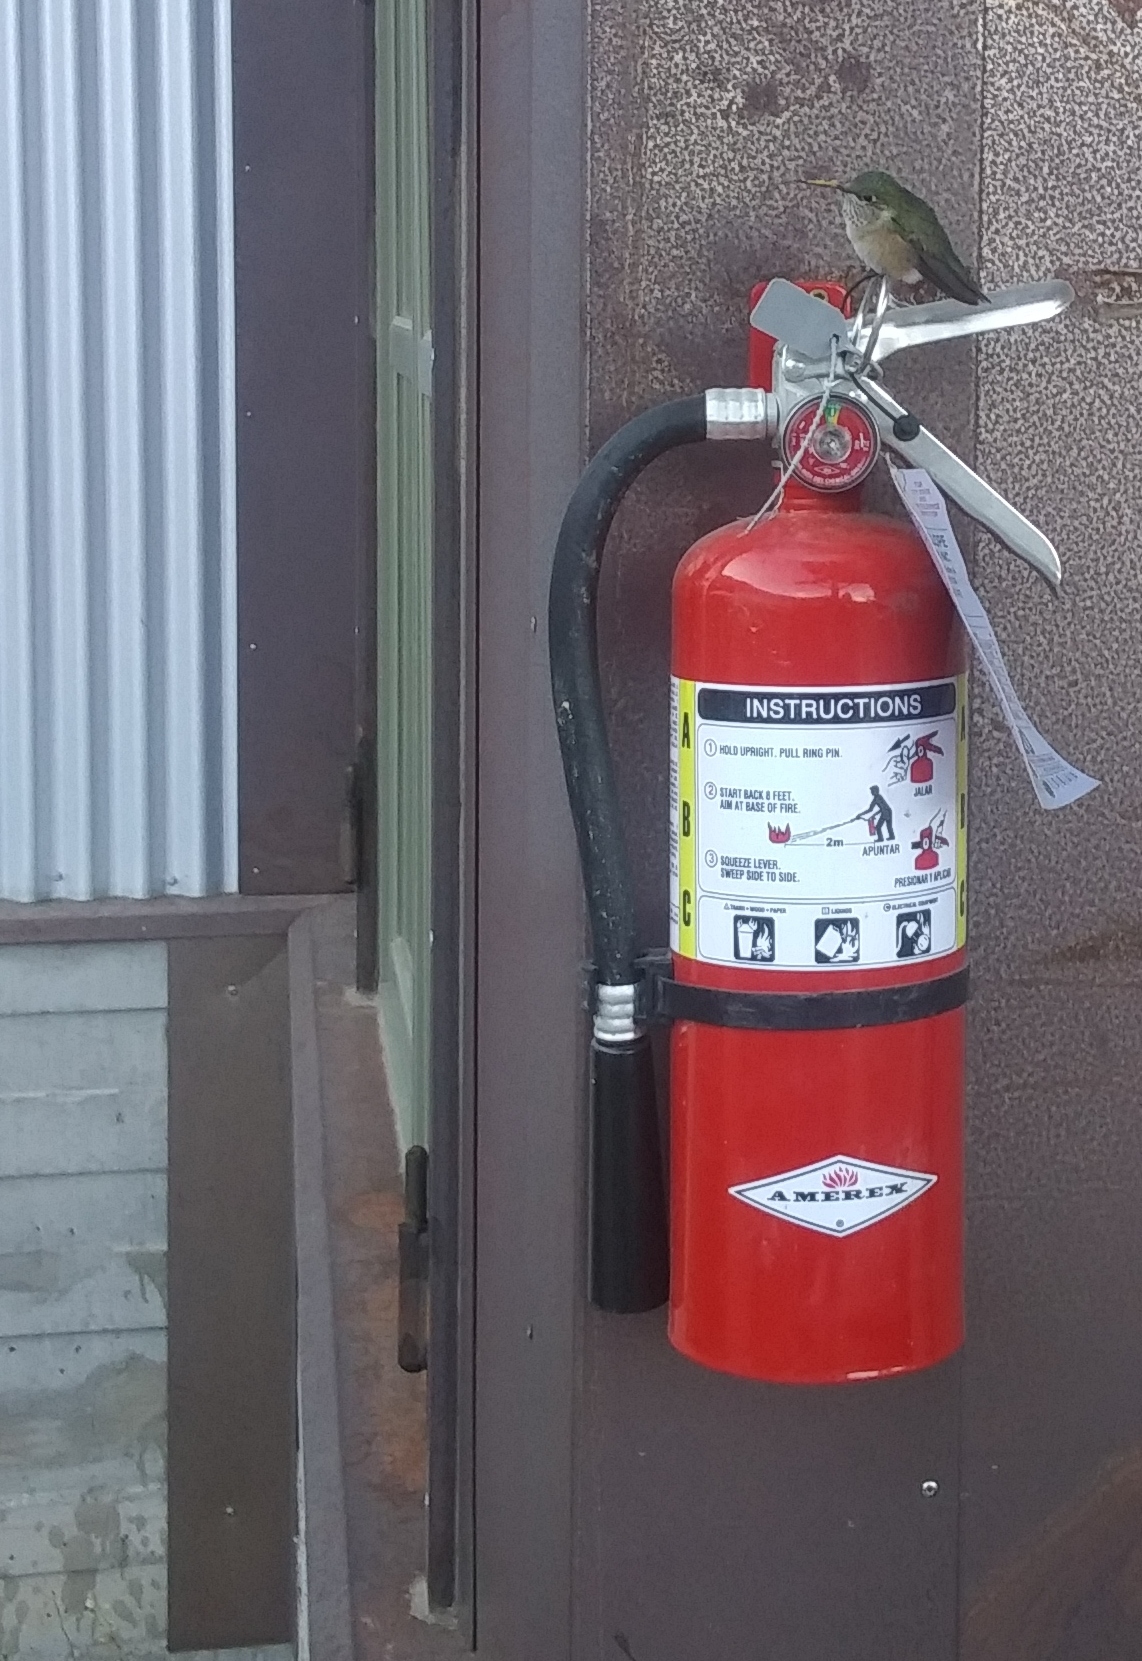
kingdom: Animalia
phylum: Chordata
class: Aves
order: Apodiformes
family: Trochilidae
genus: Selasphorus
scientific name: Selasphorus platycercus
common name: Broad-tailed hummingbird
